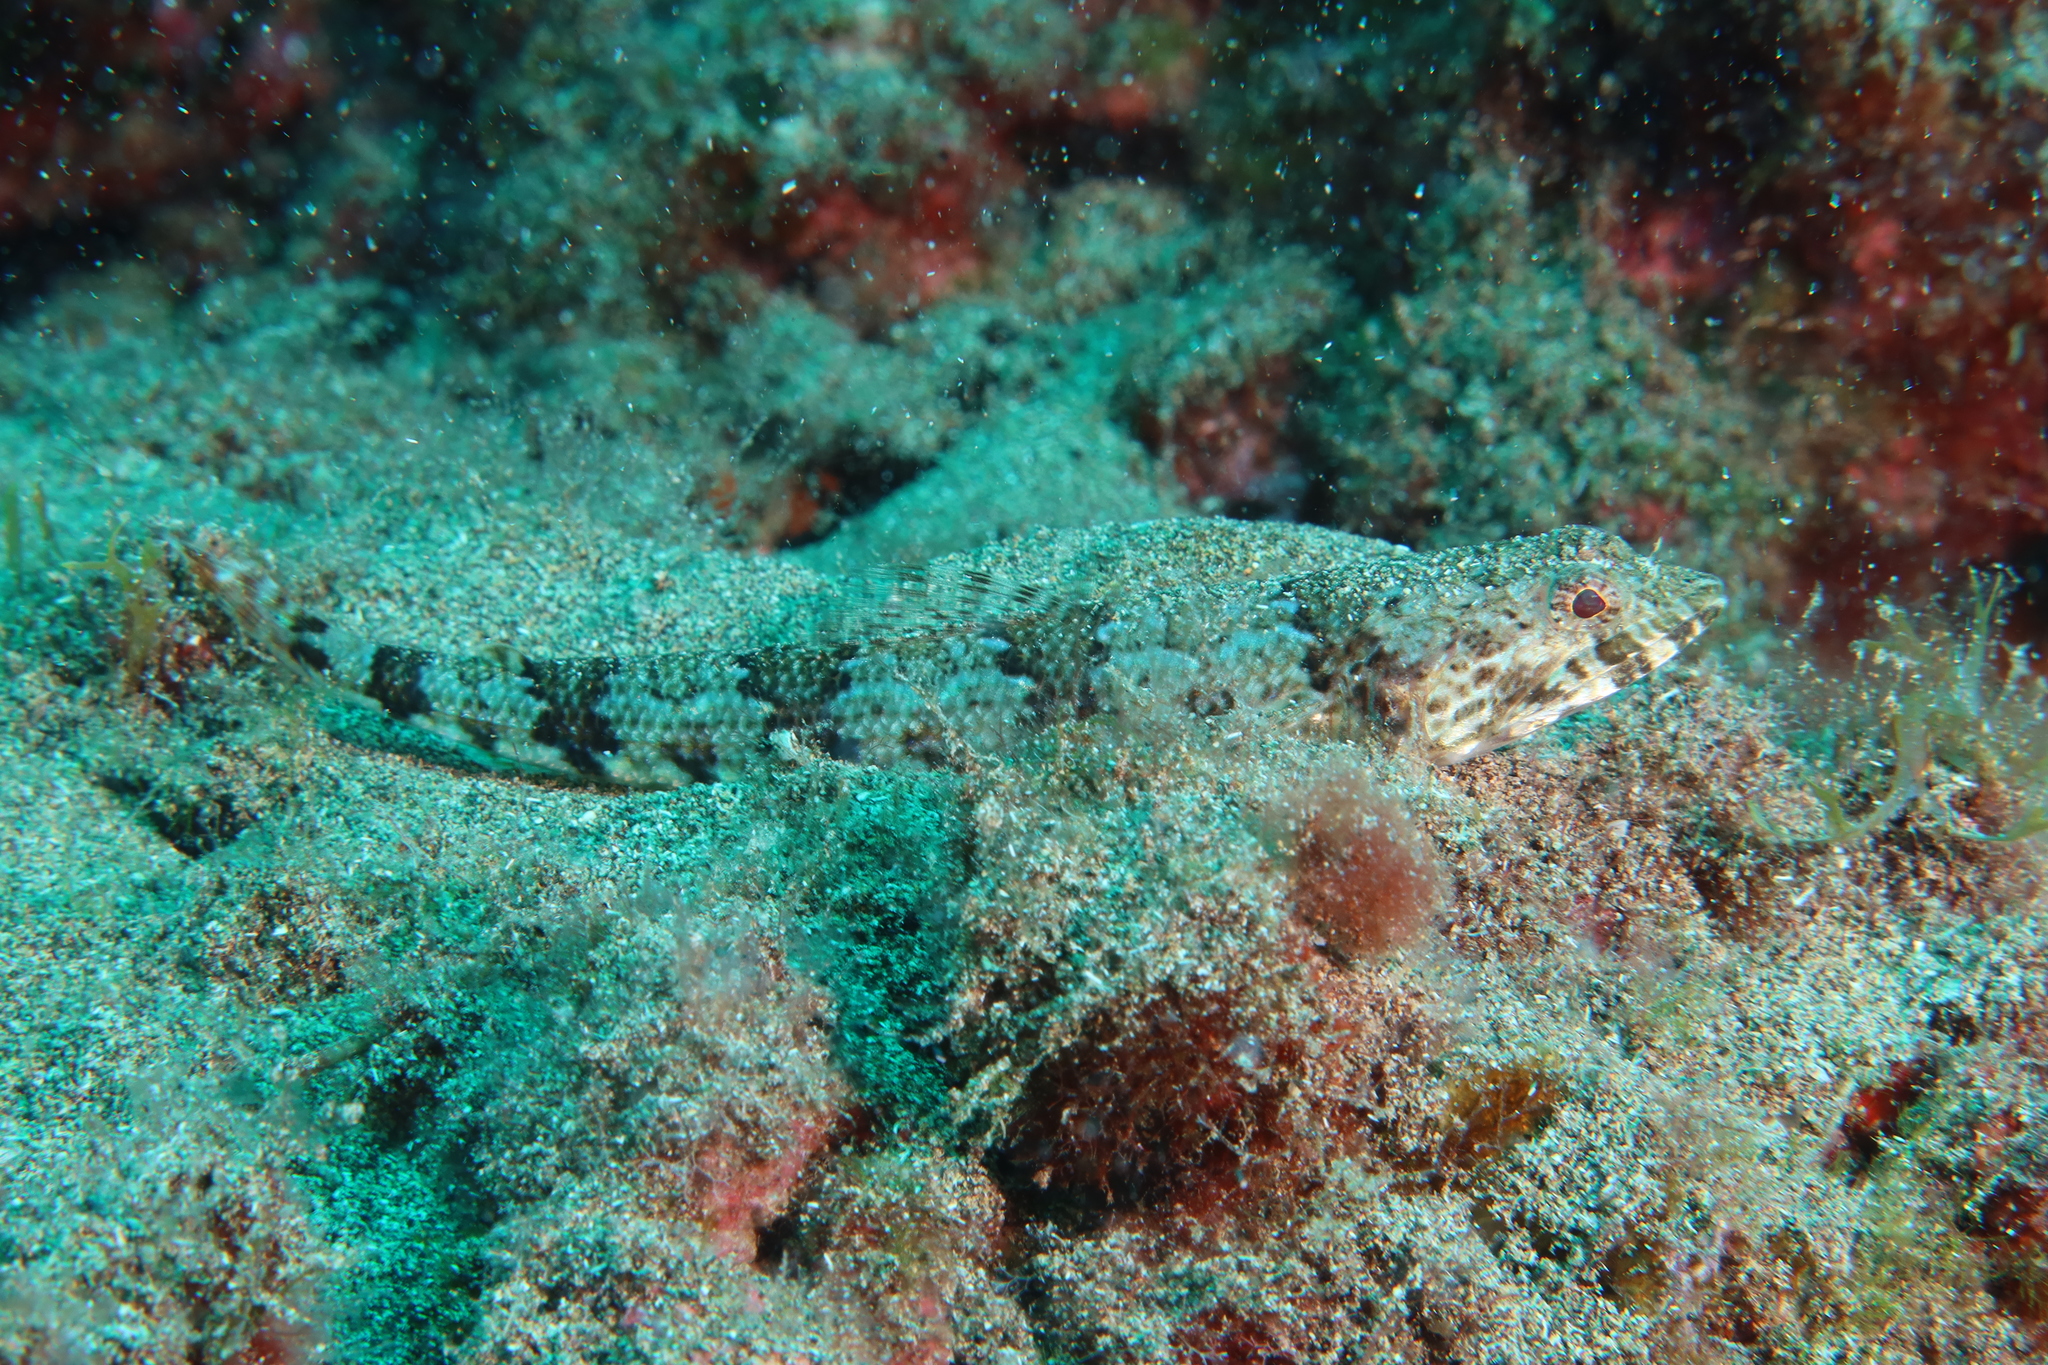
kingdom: Animalia
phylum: Chordata
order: Aulopiformes
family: Synodontidae
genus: Synodus
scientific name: Synodus synodus
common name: Red lizardfish
